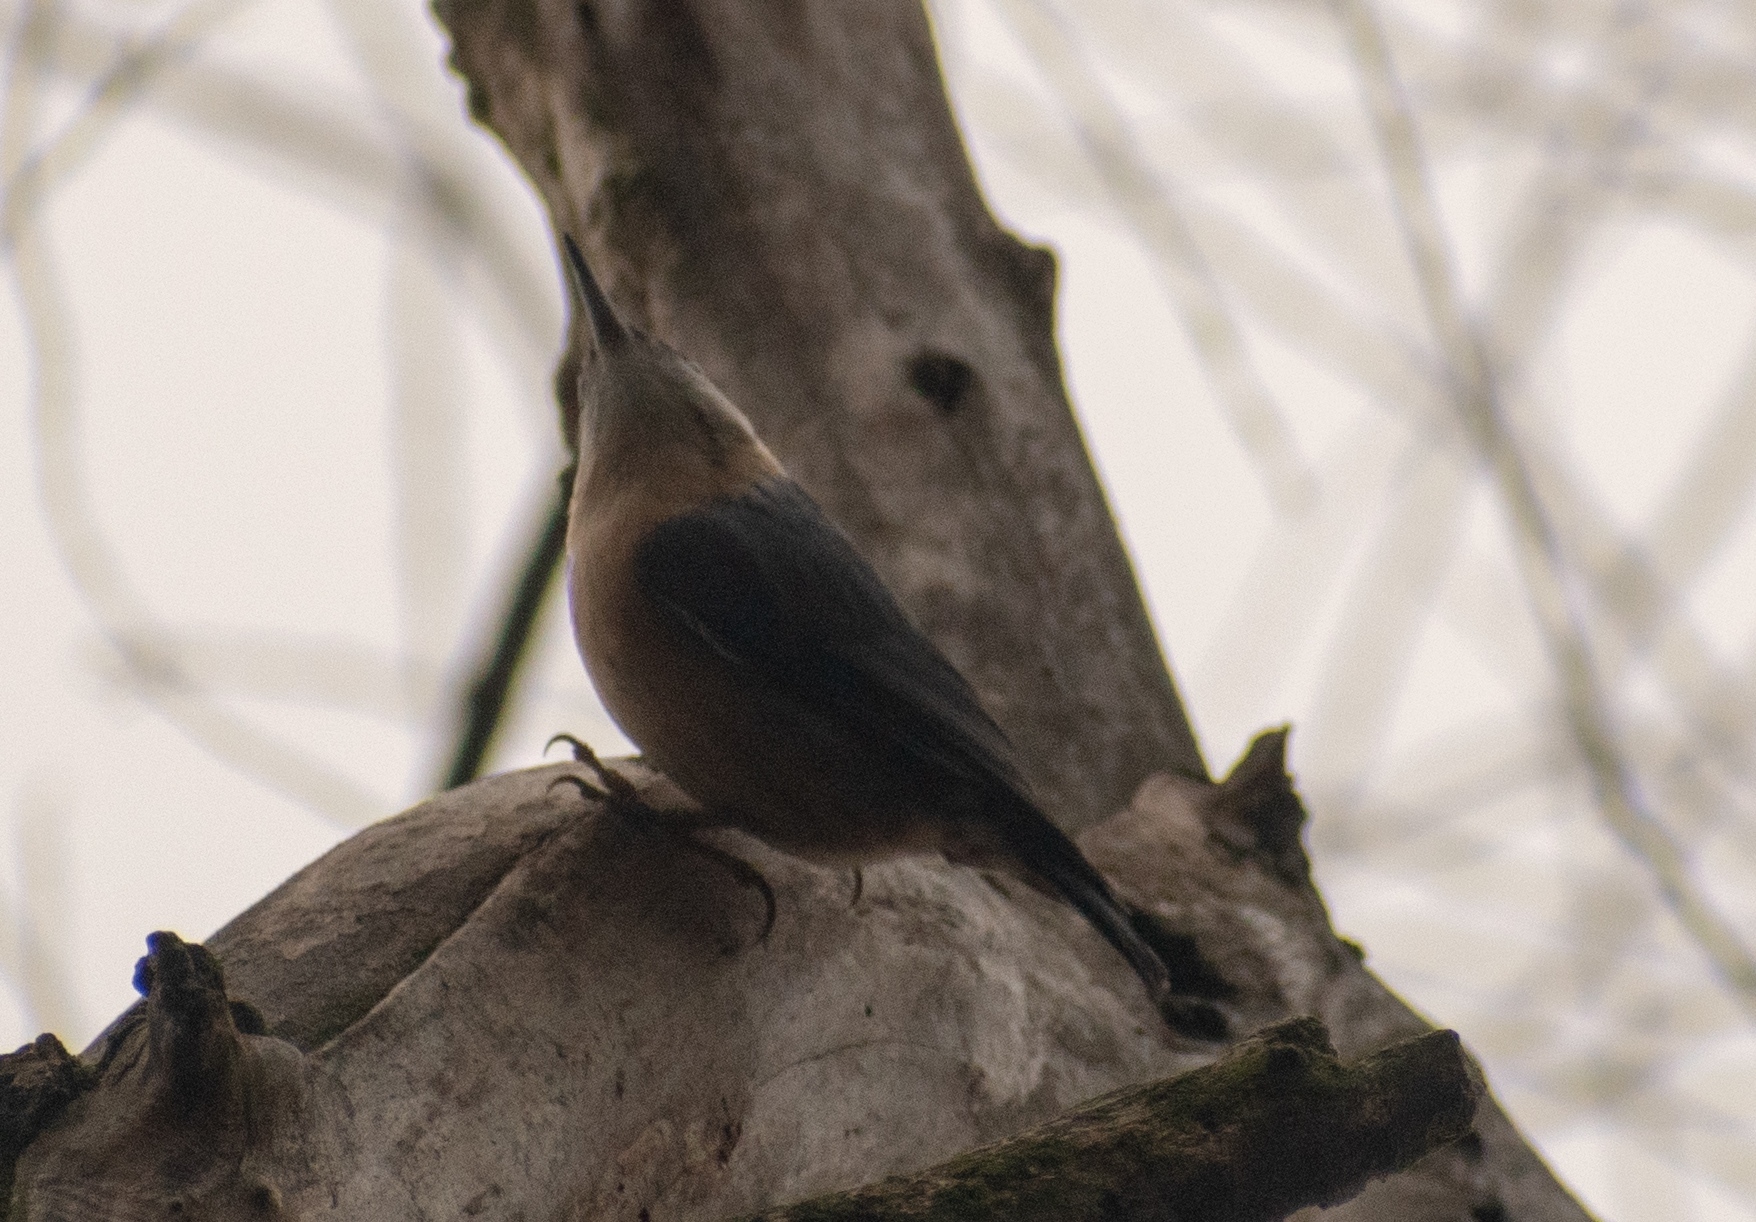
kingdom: Animalia
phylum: Chordata
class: Aves
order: Passeriformes
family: Sittidae
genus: Sitta
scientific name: Sitta europaea
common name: Eurasian nuthatch
